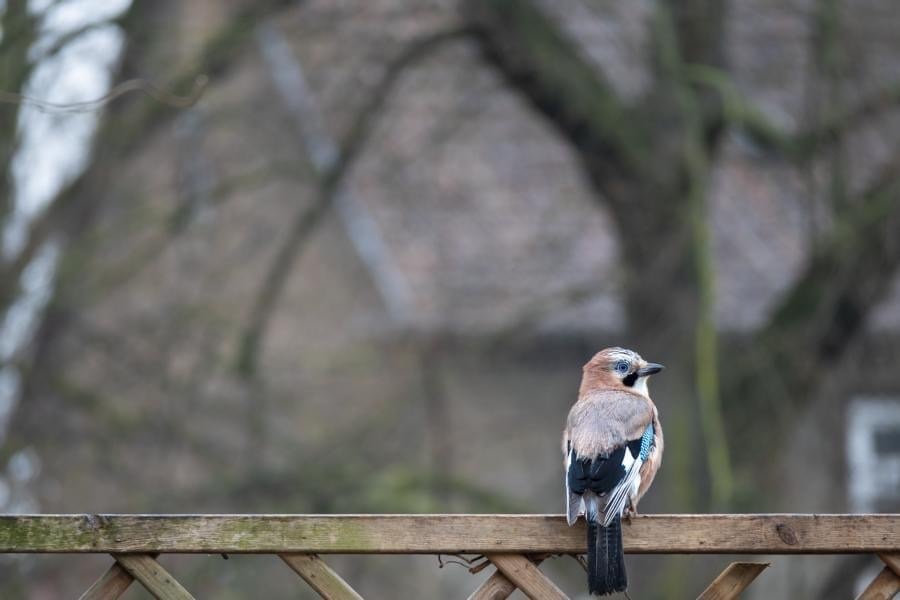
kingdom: Animalia
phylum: Chordata
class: Aves
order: Passeriformes
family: Corvidae
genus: Garrulus
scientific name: Garrulus glandarius
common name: Eurasian jay
